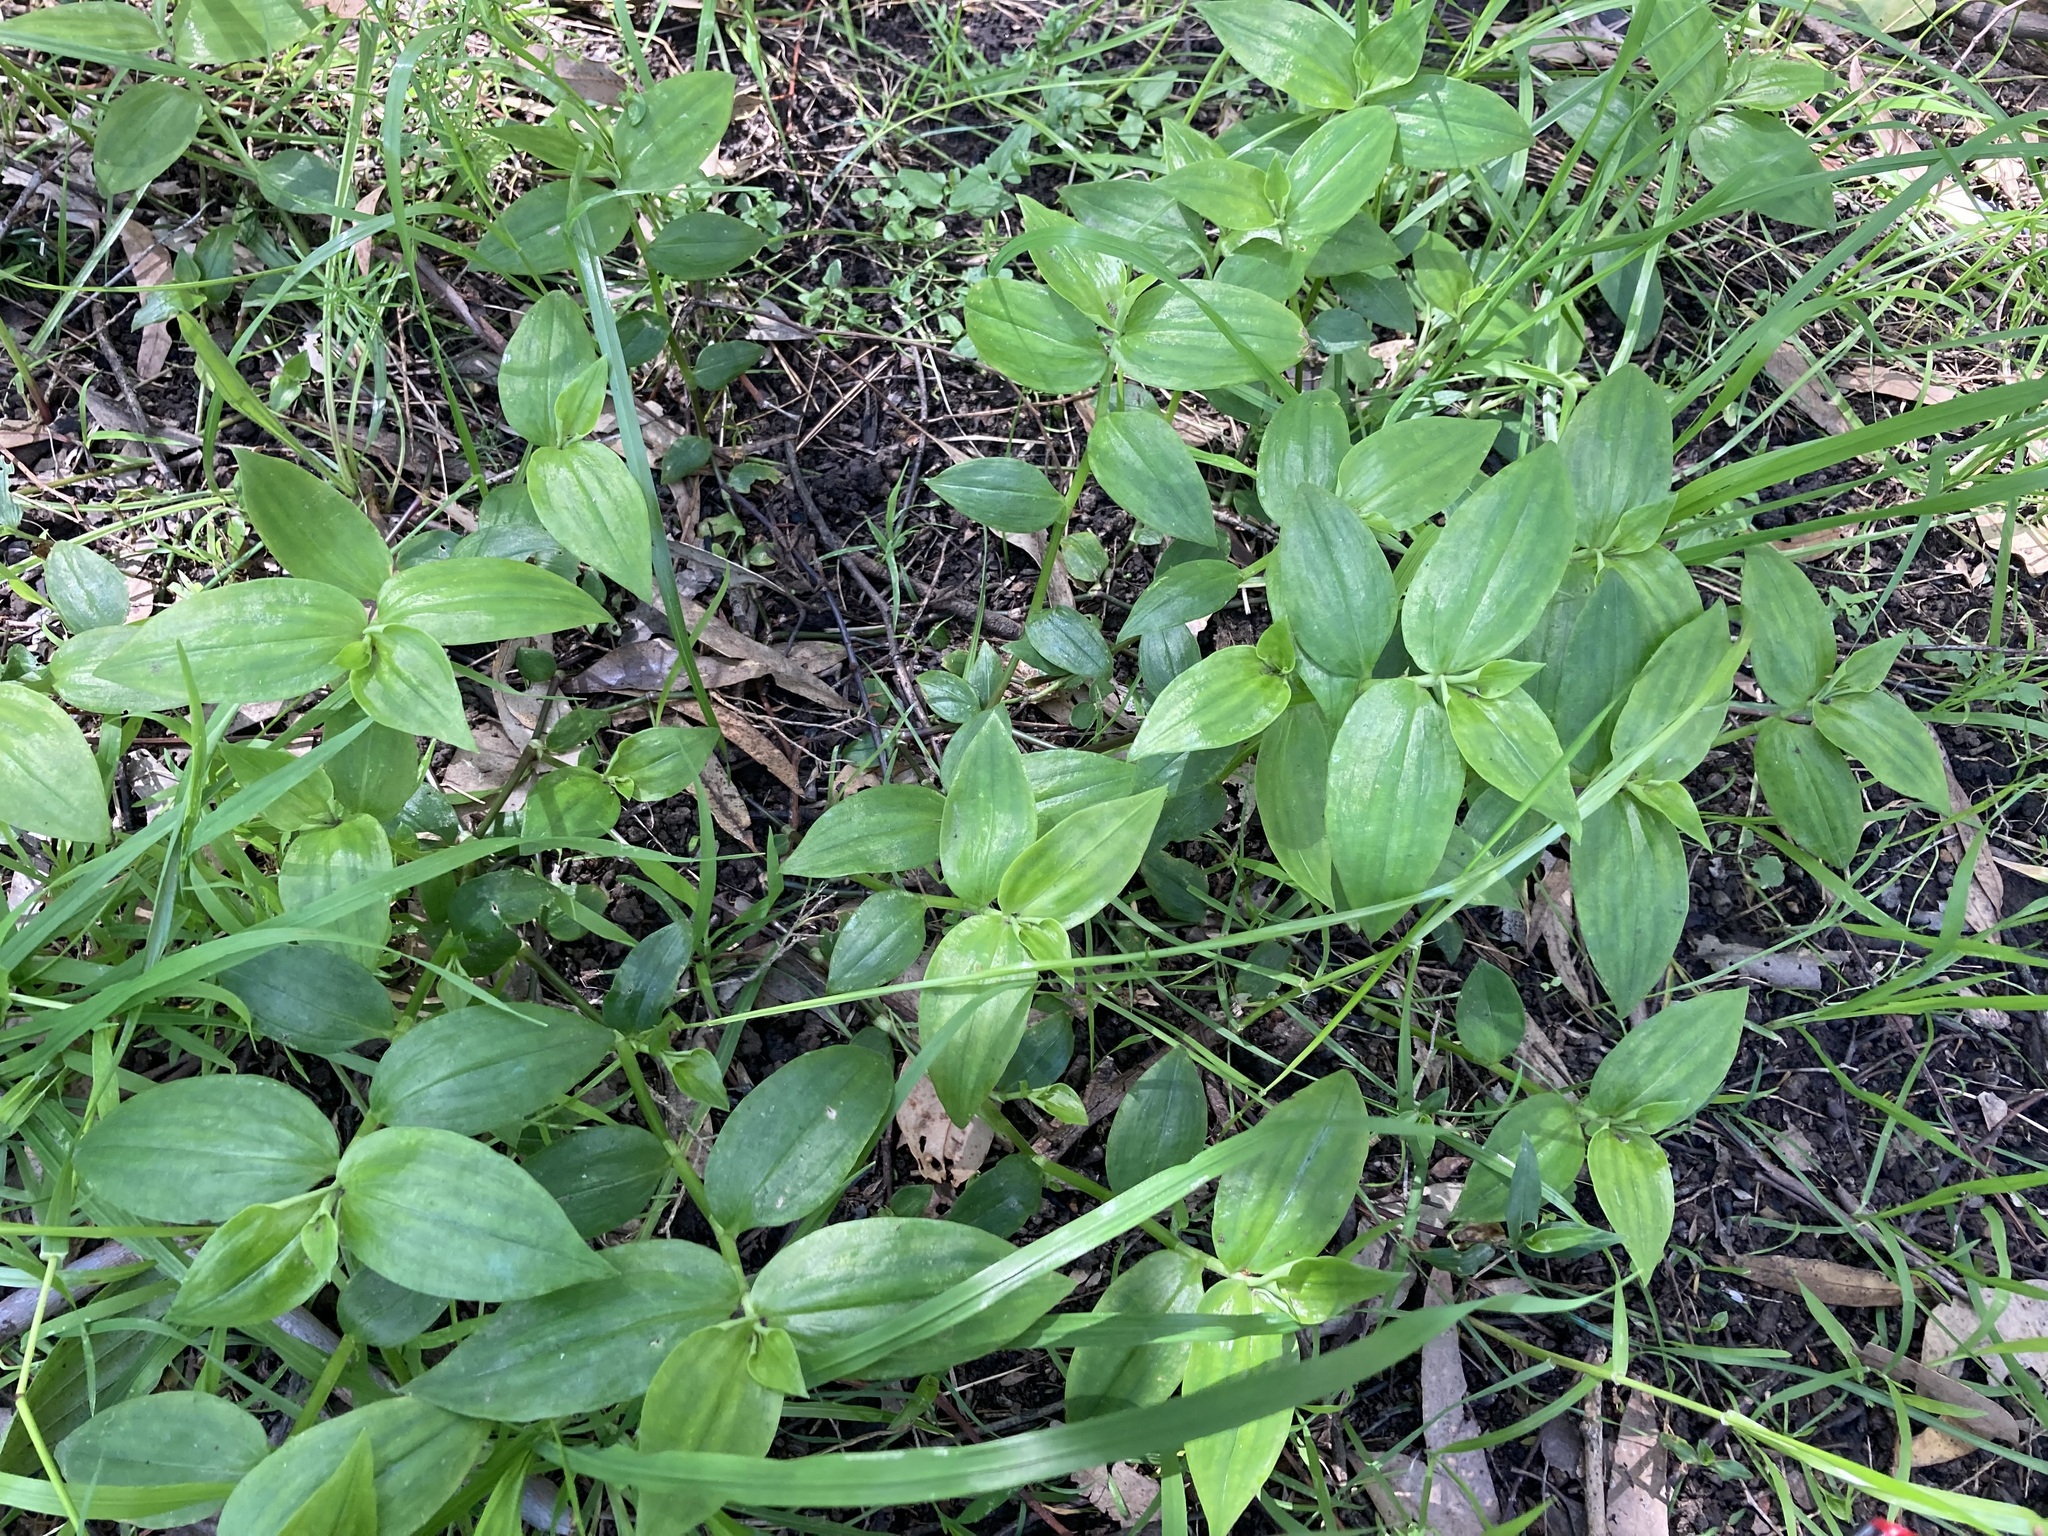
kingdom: Plantae
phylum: Tracheophyta
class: Liliopsida
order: Commelinales
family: Commelinaceae
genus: Tradescantia
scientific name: Tradescantia fluminensis
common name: Wandering-jew
